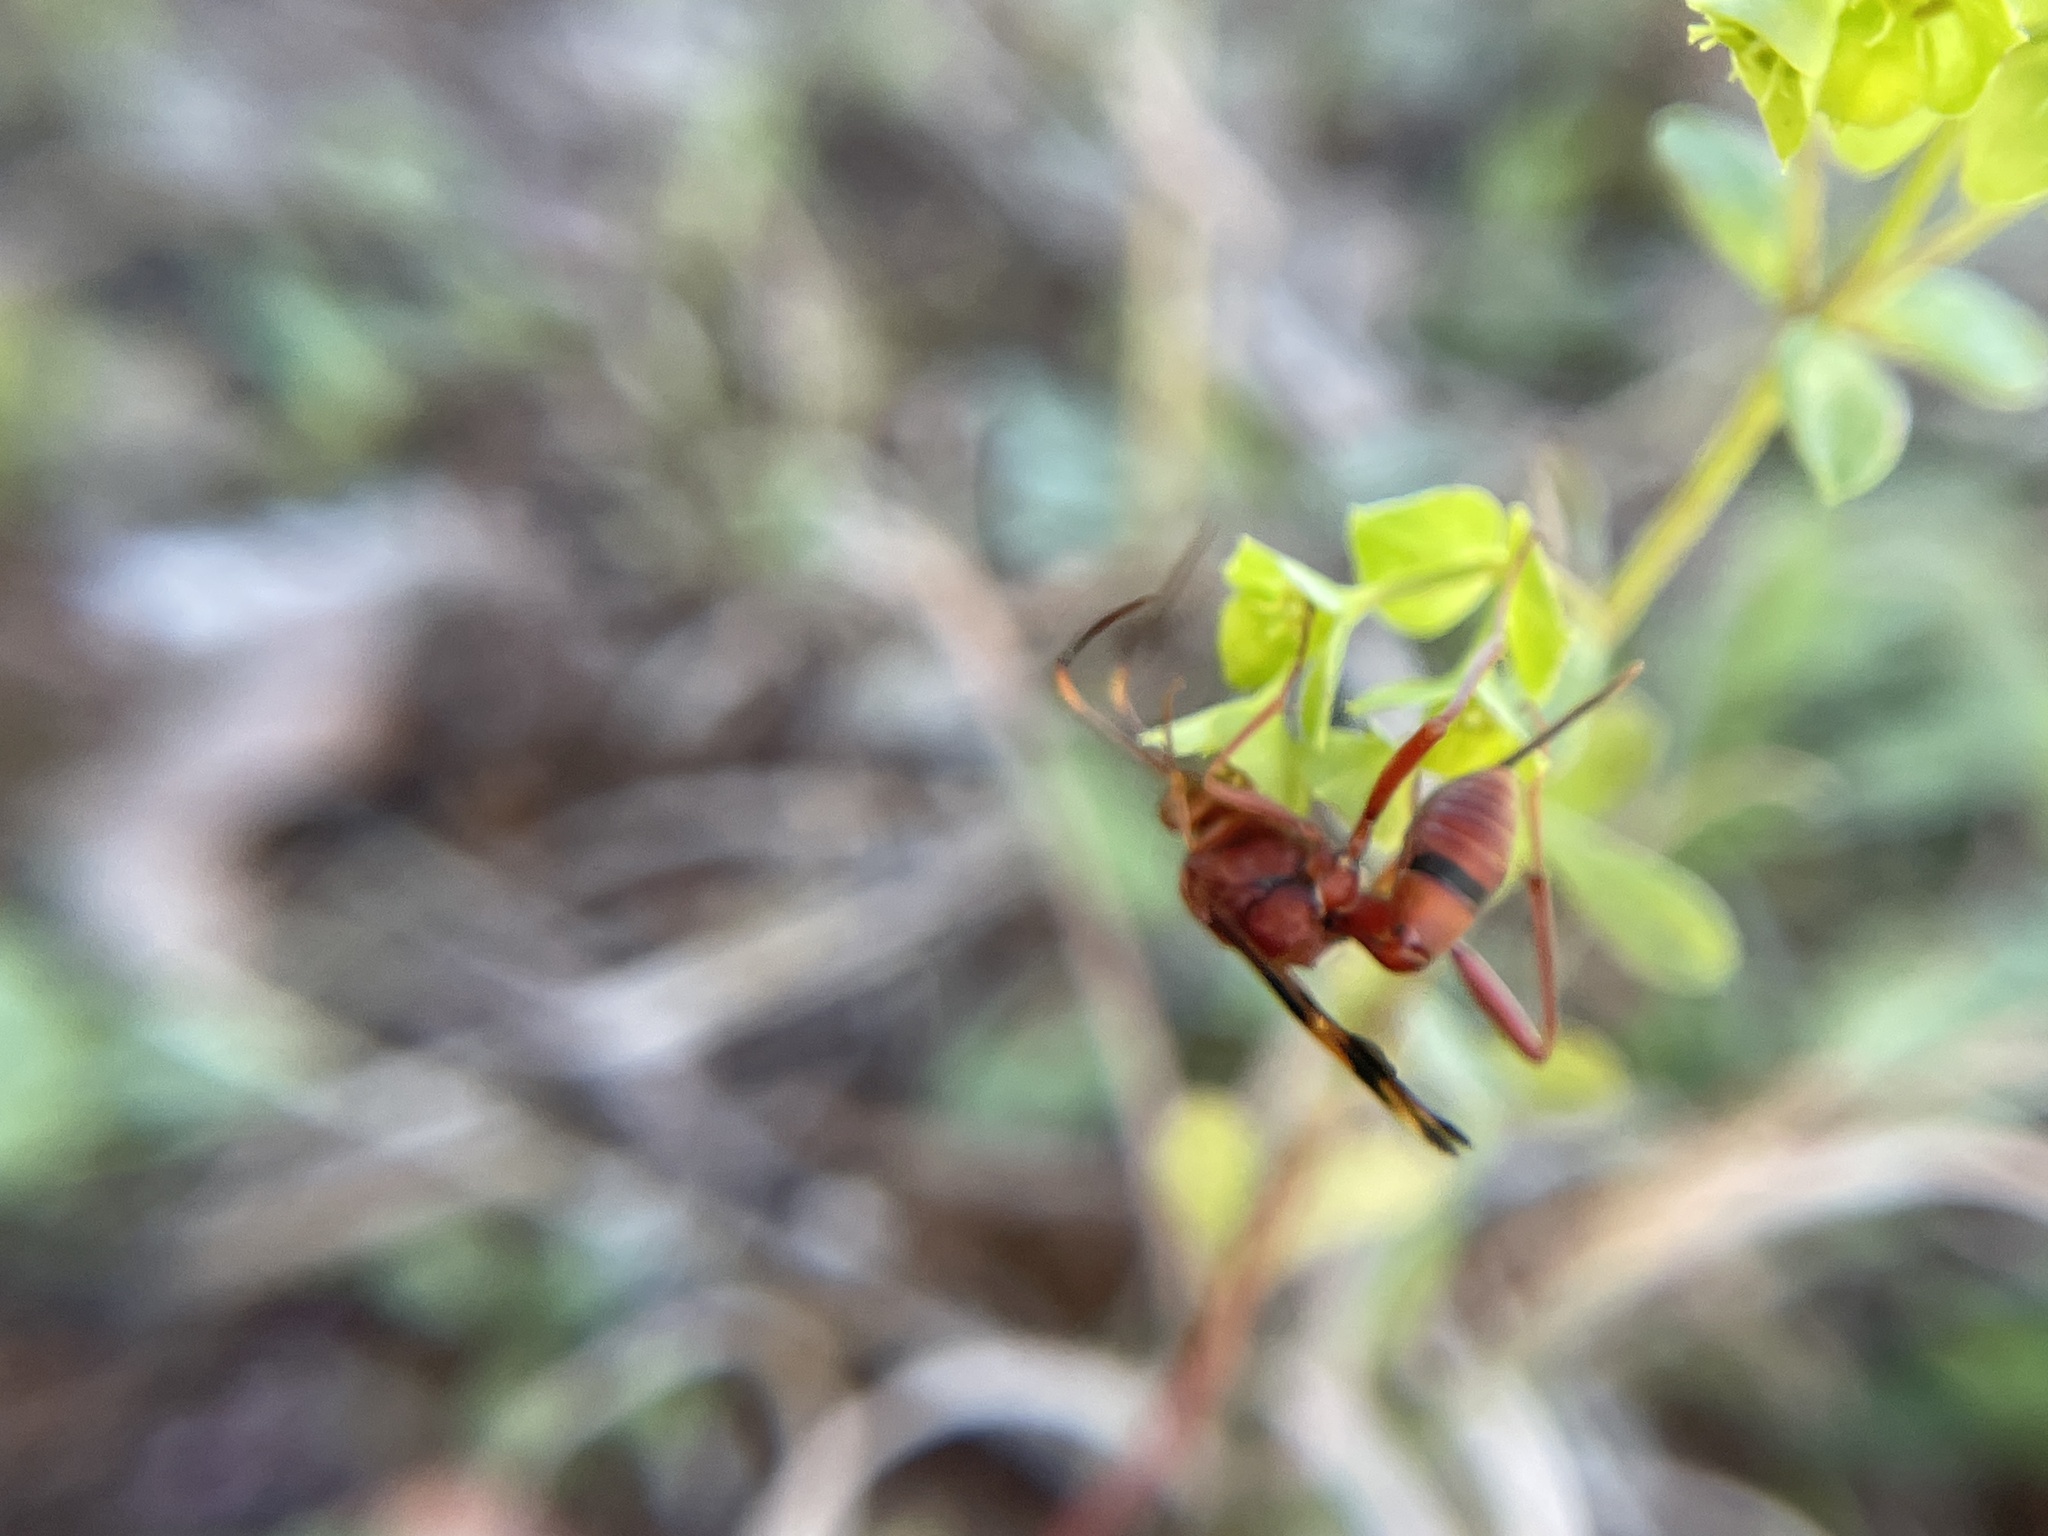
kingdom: Plantae
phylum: Tracheophyta
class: Magnoliopsida
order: Malpighiales
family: Euphorbiaceae
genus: Euphorbia
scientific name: Euphorbia tetrapora
